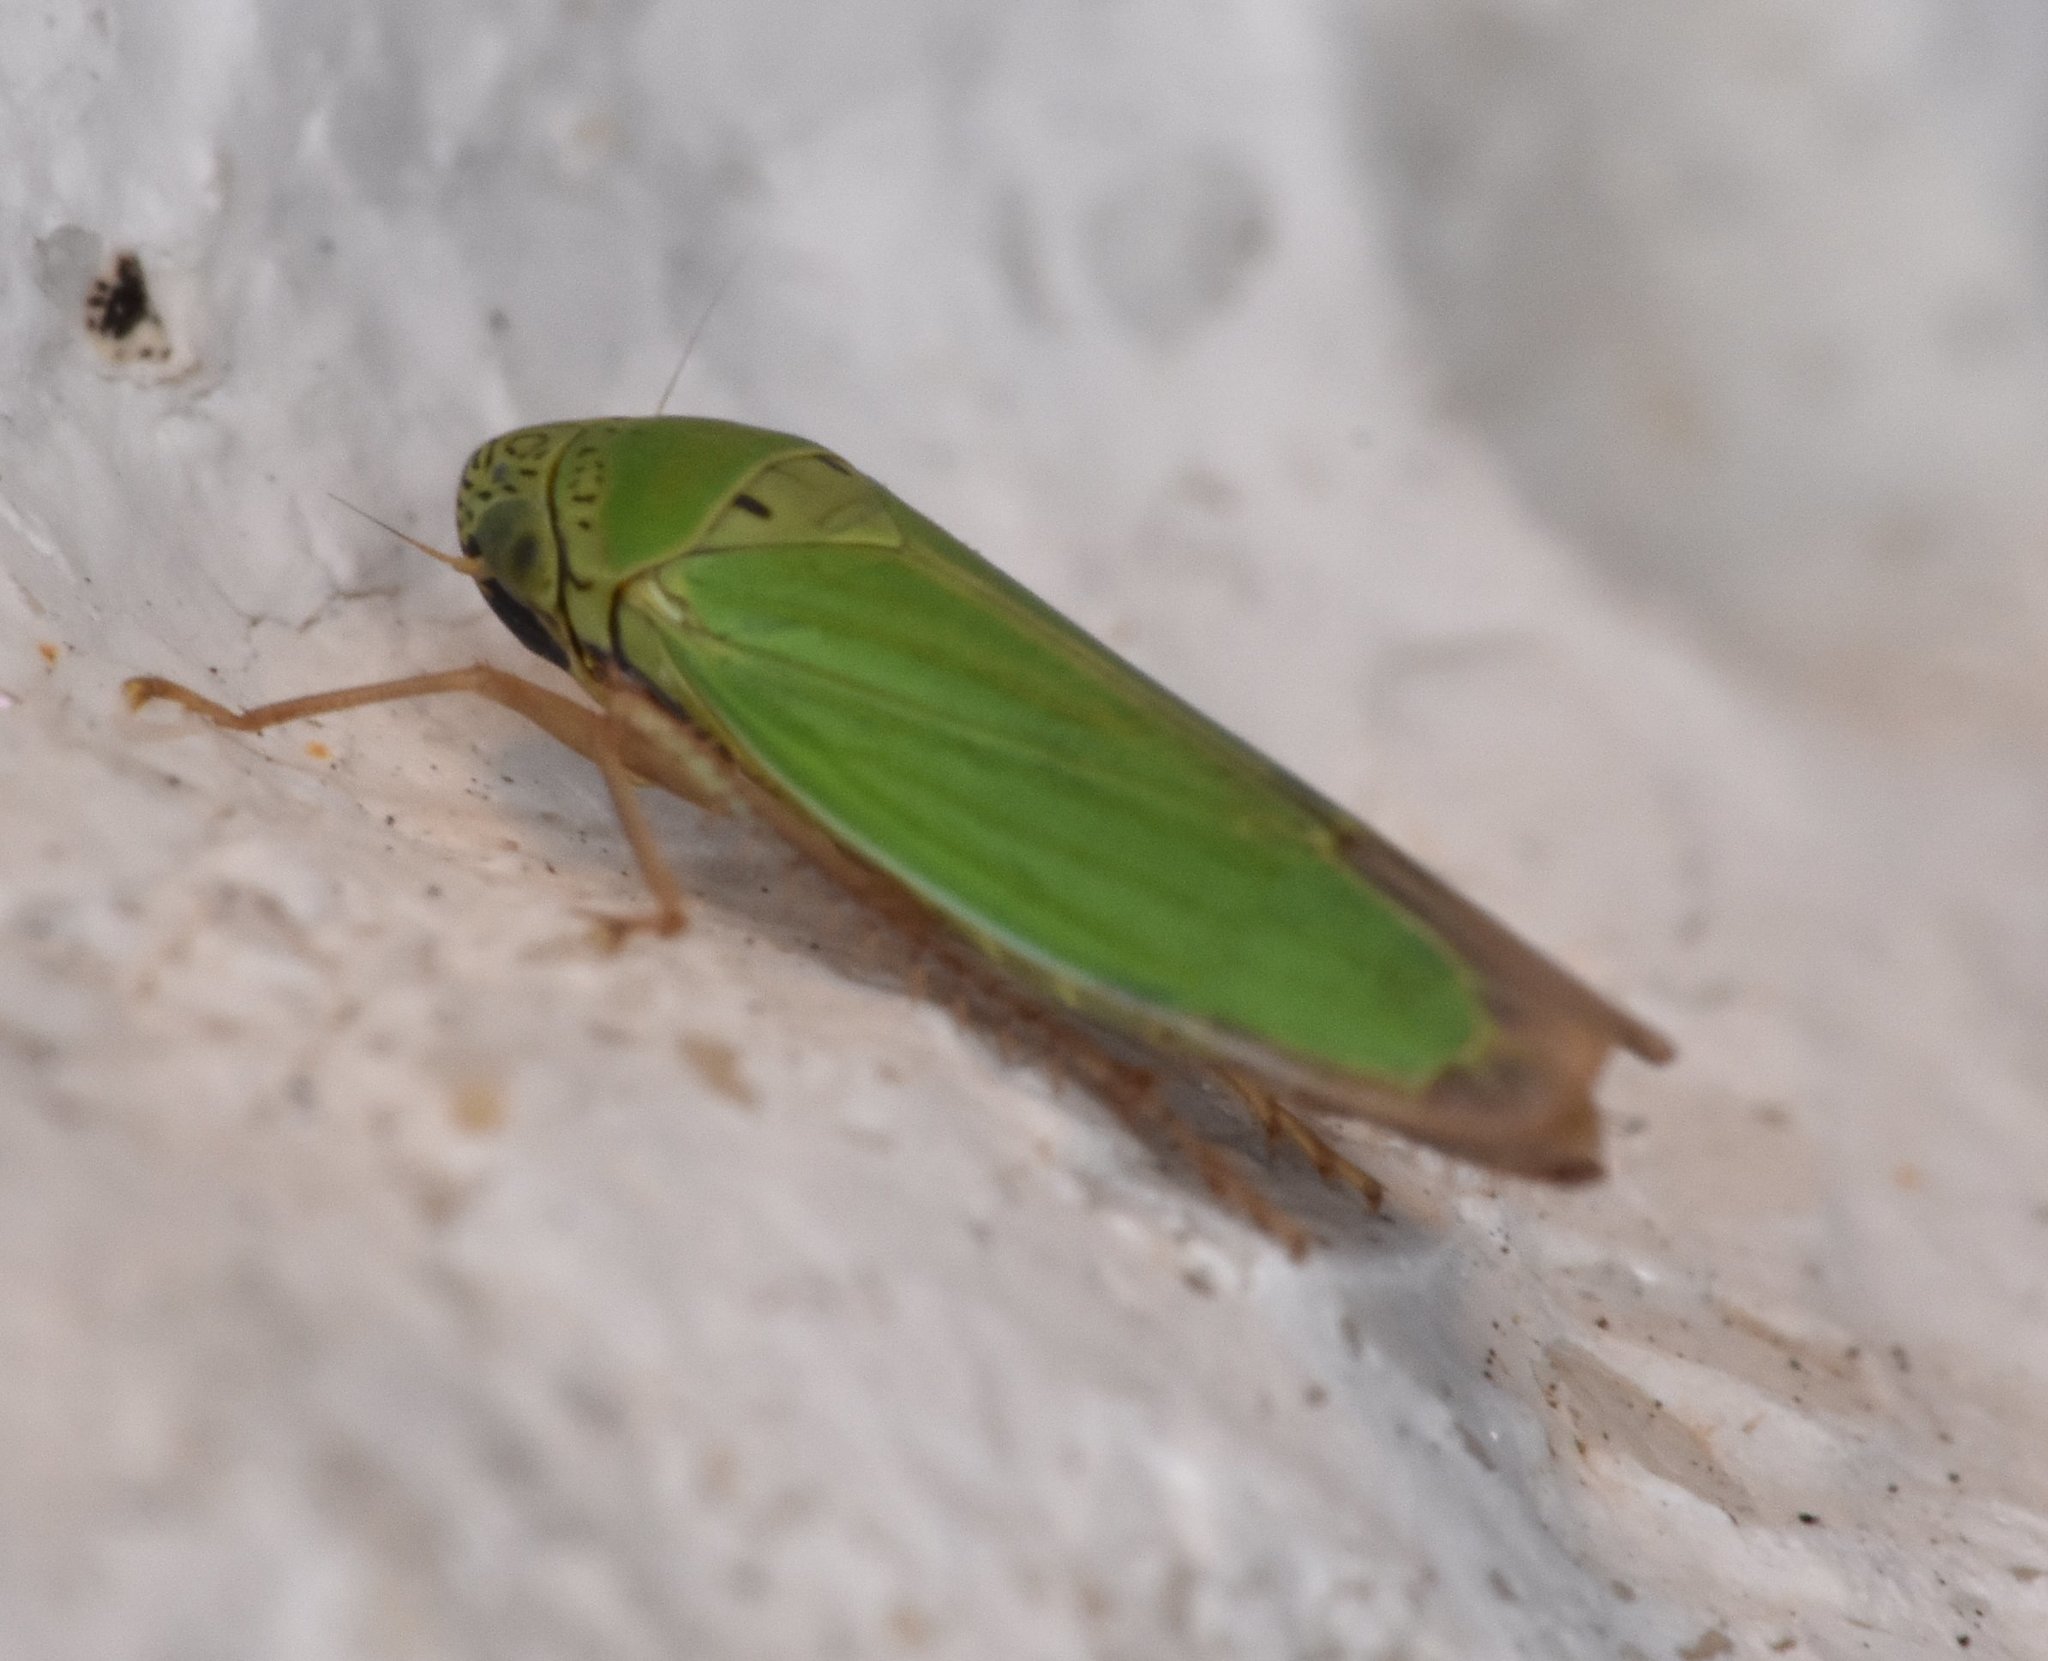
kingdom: Animalia
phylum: Arthropoda
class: Insecta
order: Hemiptera
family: Cicadellidae
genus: Hortensia
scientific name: Hortensia similis
